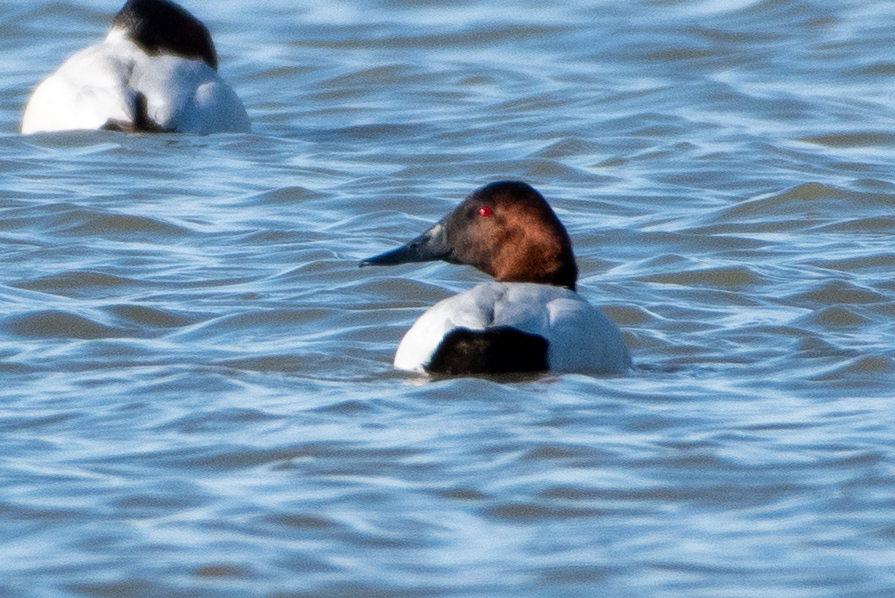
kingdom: Animalia
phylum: Chordata
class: Aves
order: Anseriformes
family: Anatidae
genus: Aythya
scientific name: Aythya valisineria
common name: Canvasback
